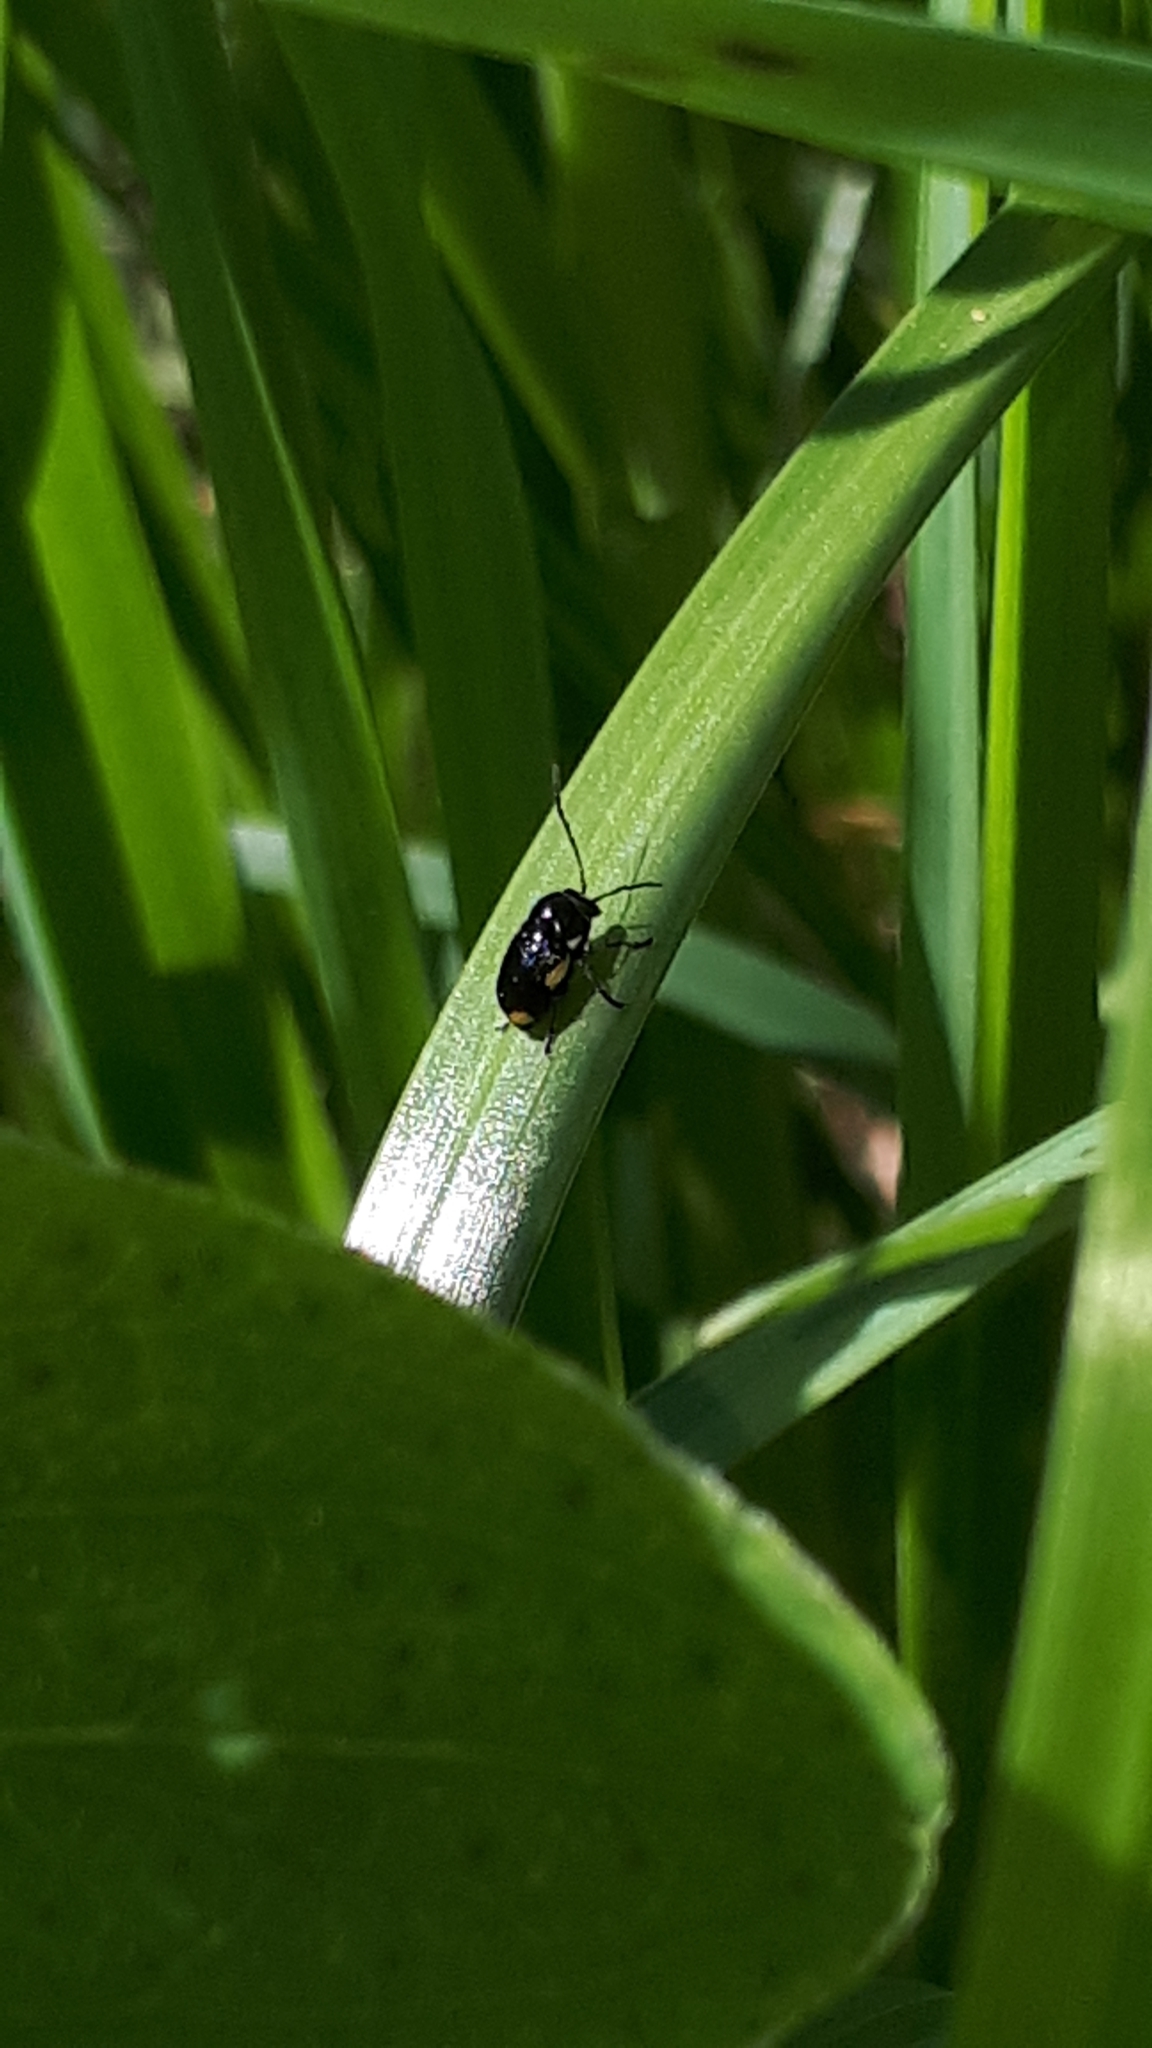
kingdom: Animalia
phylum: Arthropoda
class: Insecta
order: Coleoptera
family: Chrysomelidae
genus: Cryptocephalus
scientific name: Cryptocephalus moraei
